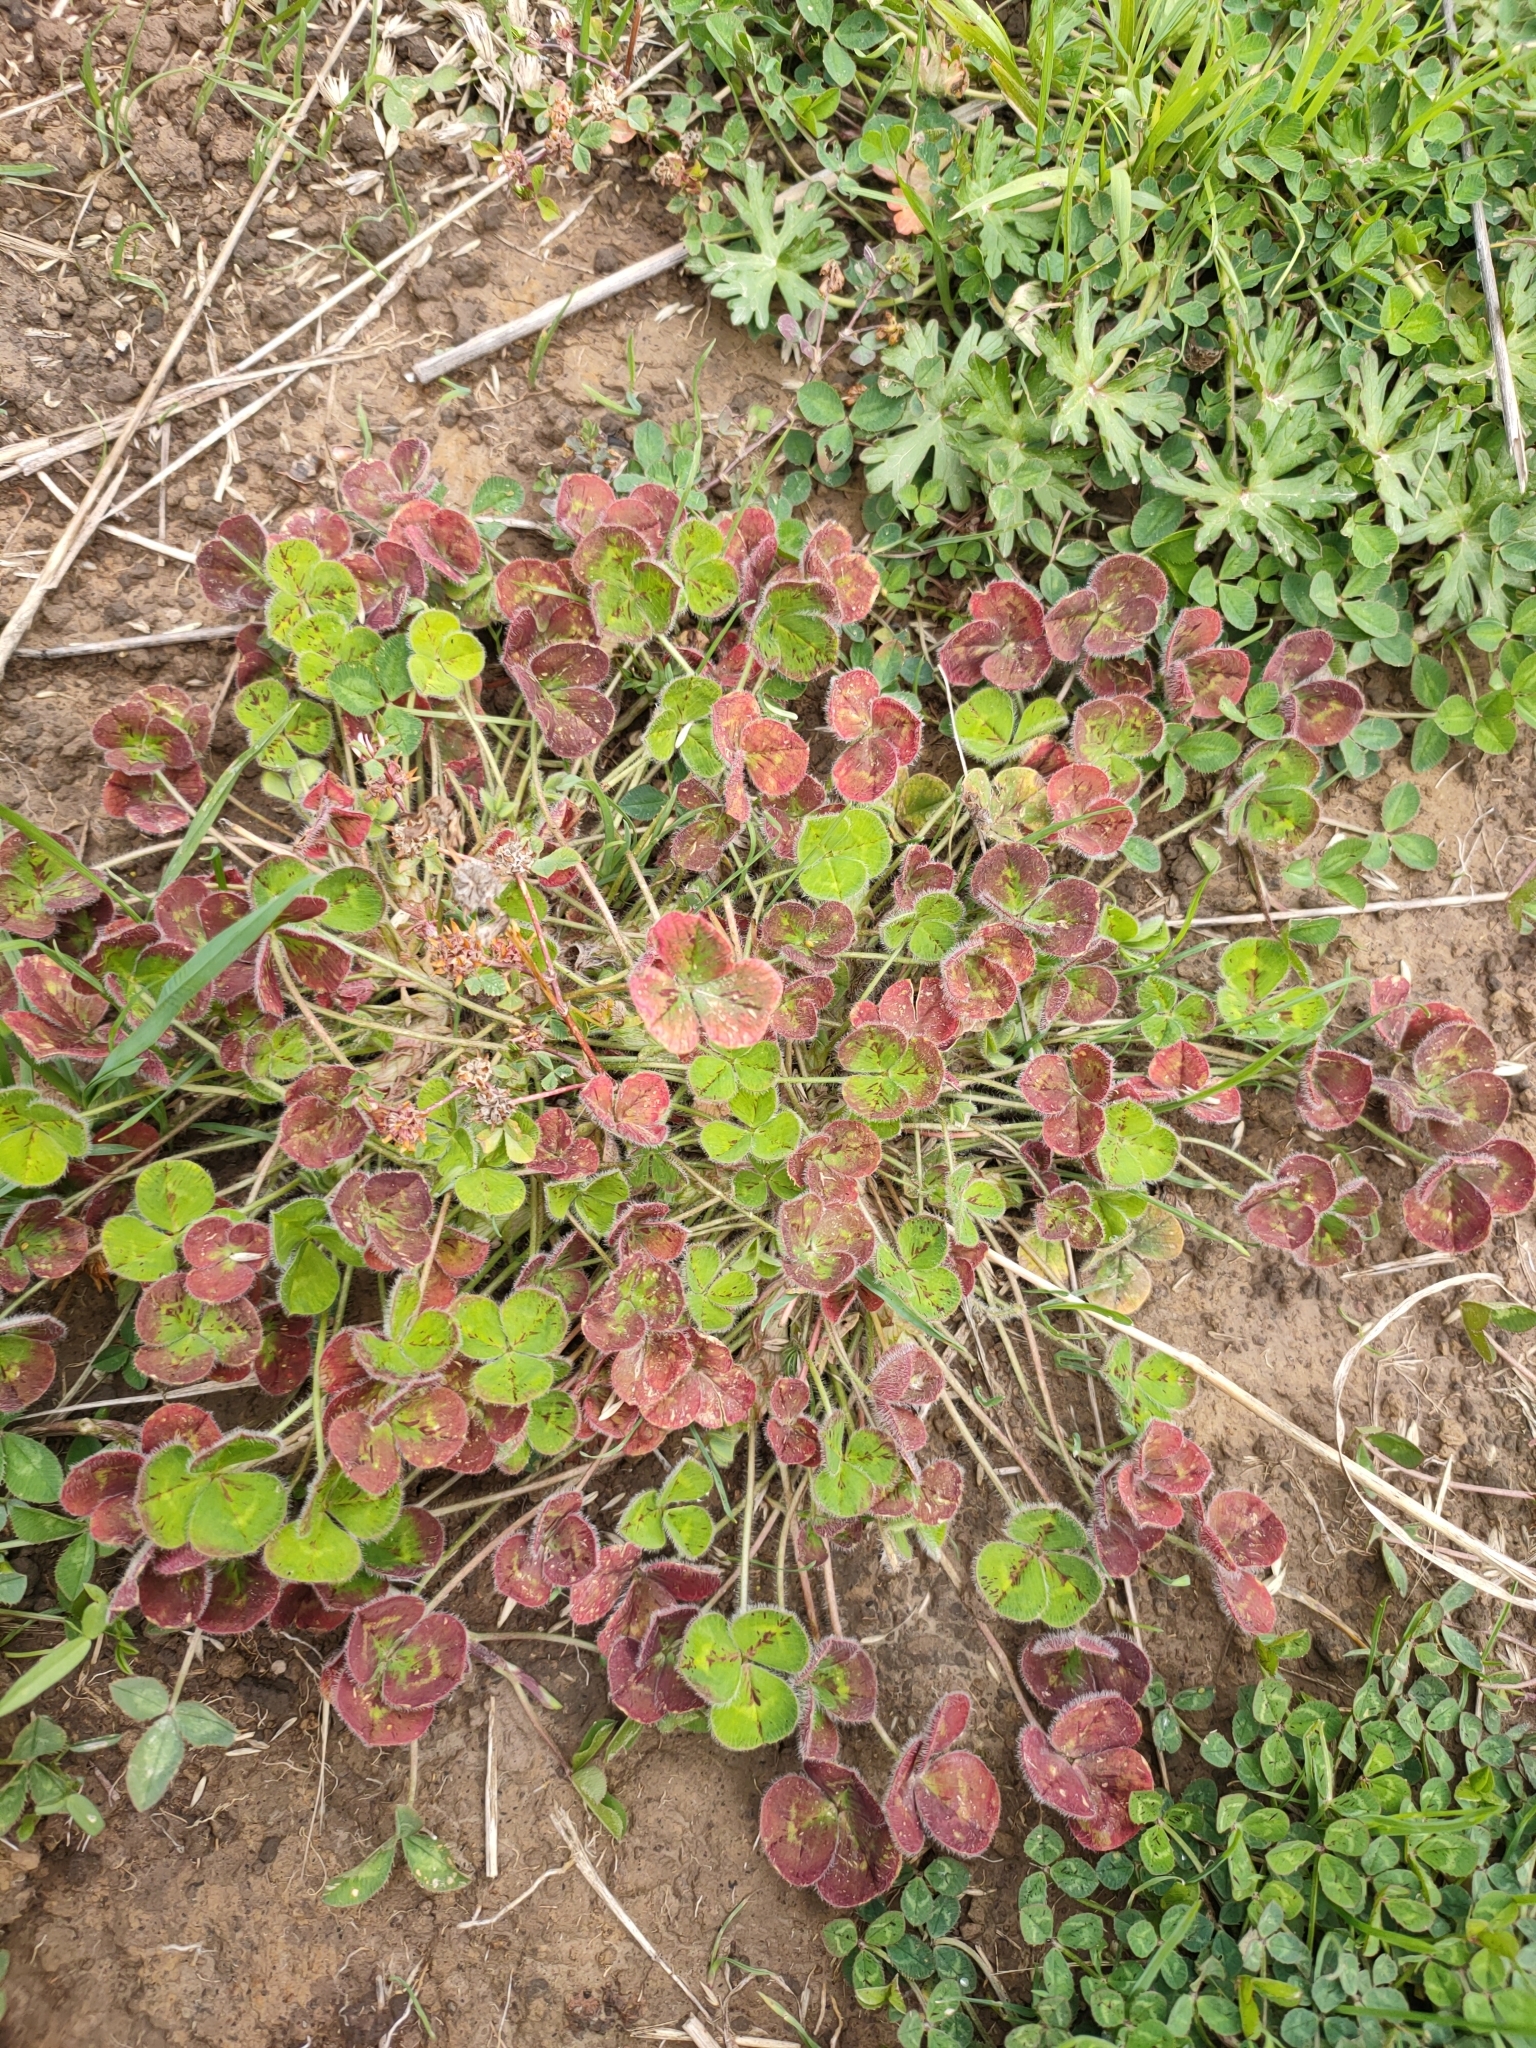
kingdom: Plantae
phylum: Tracheophyta
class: Magnoliopsida
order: Fabales
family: Fabaceae
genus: Trifolium
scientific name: Trifolium subterraneum
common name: Subterranean clover
